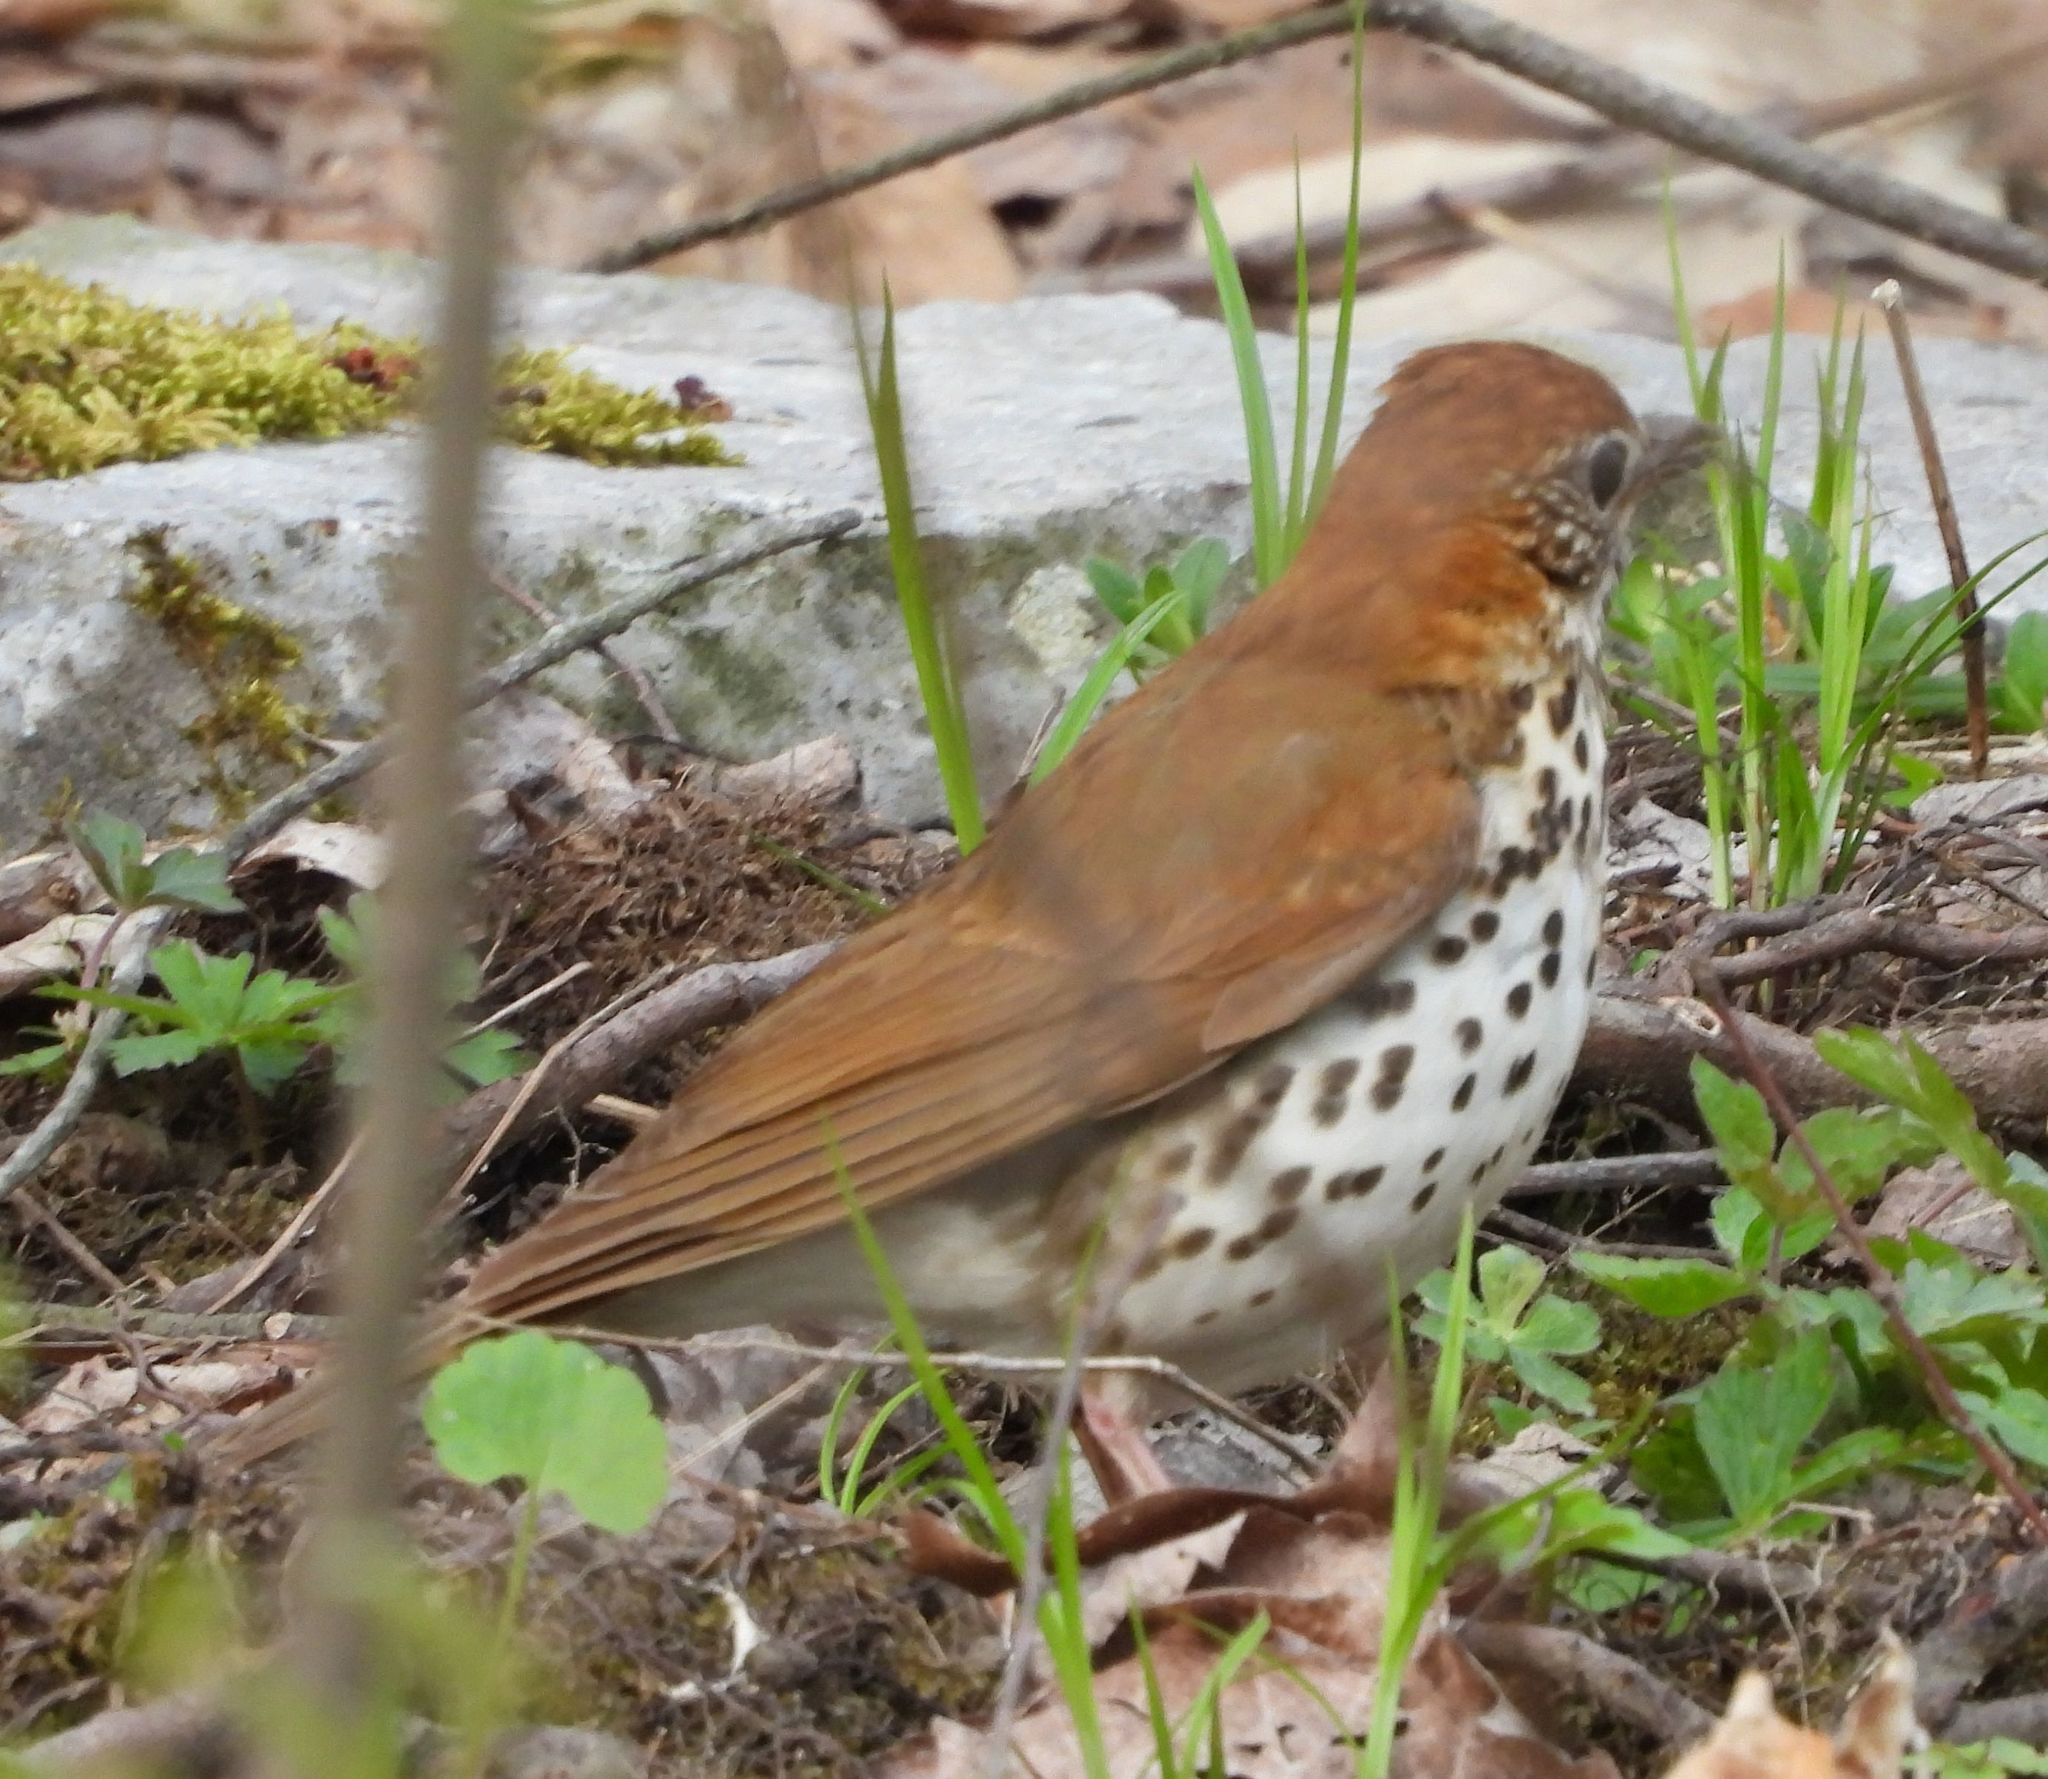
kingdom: Animalia
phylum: Chordata
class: Aves
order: Passeriformes
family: Turdidae
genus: Hylocichla
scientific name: Hylocichla mustelina
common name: Wood thrush
